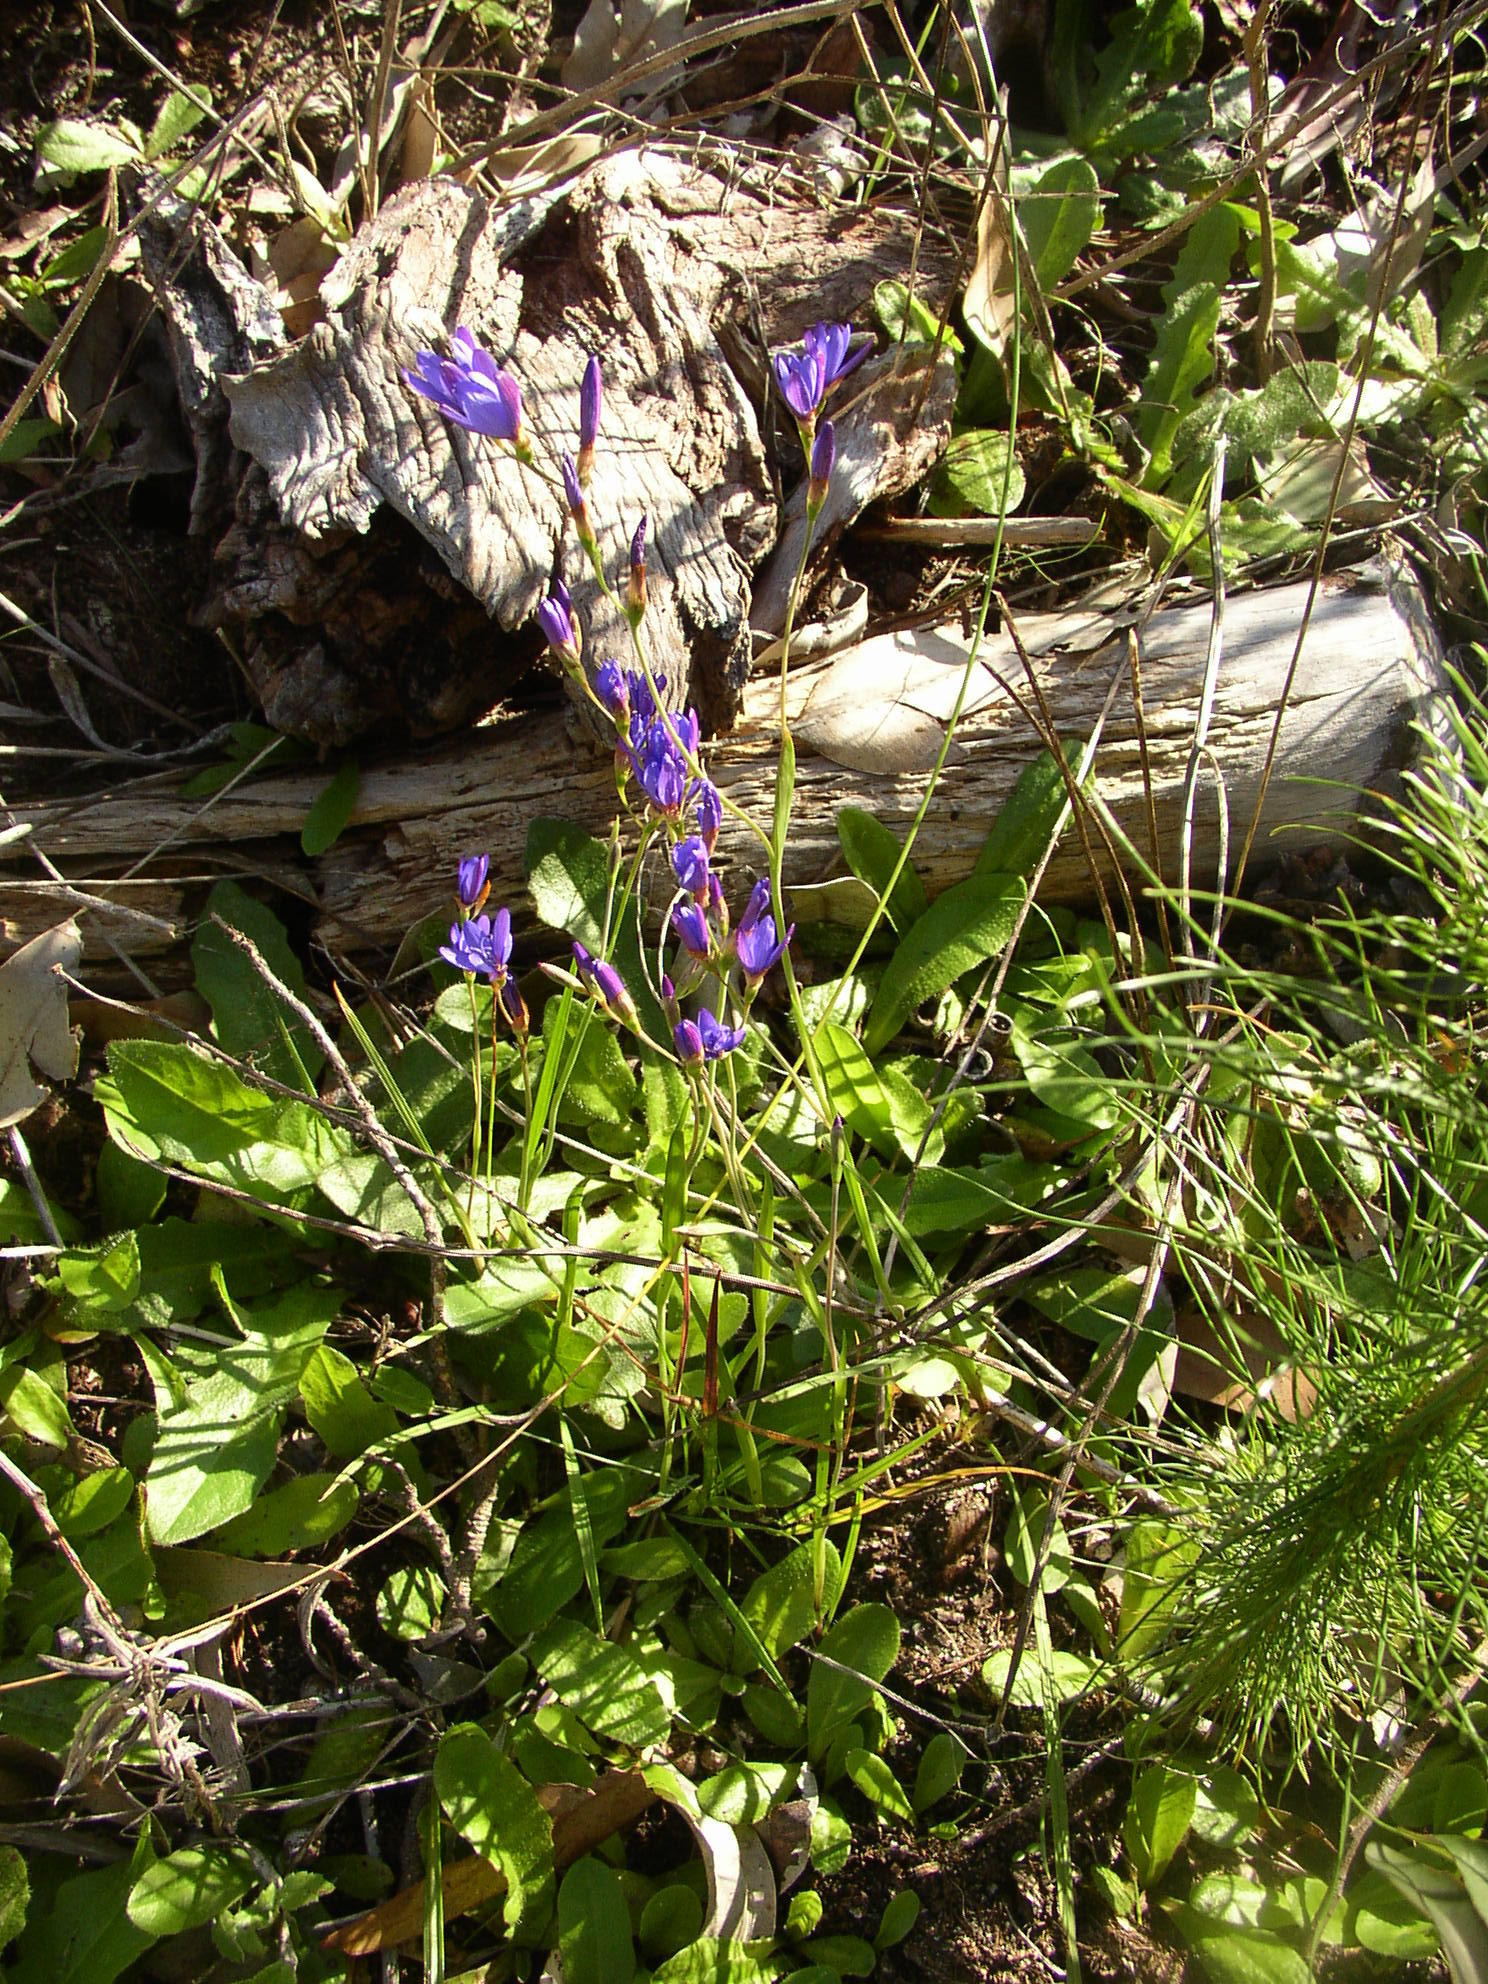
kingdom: Plantae
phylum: Tracheophyta
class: Liliopsida
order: Asparagales
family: Iridaceae
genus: Geissorhiza
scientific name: Geissorhiza aspera
